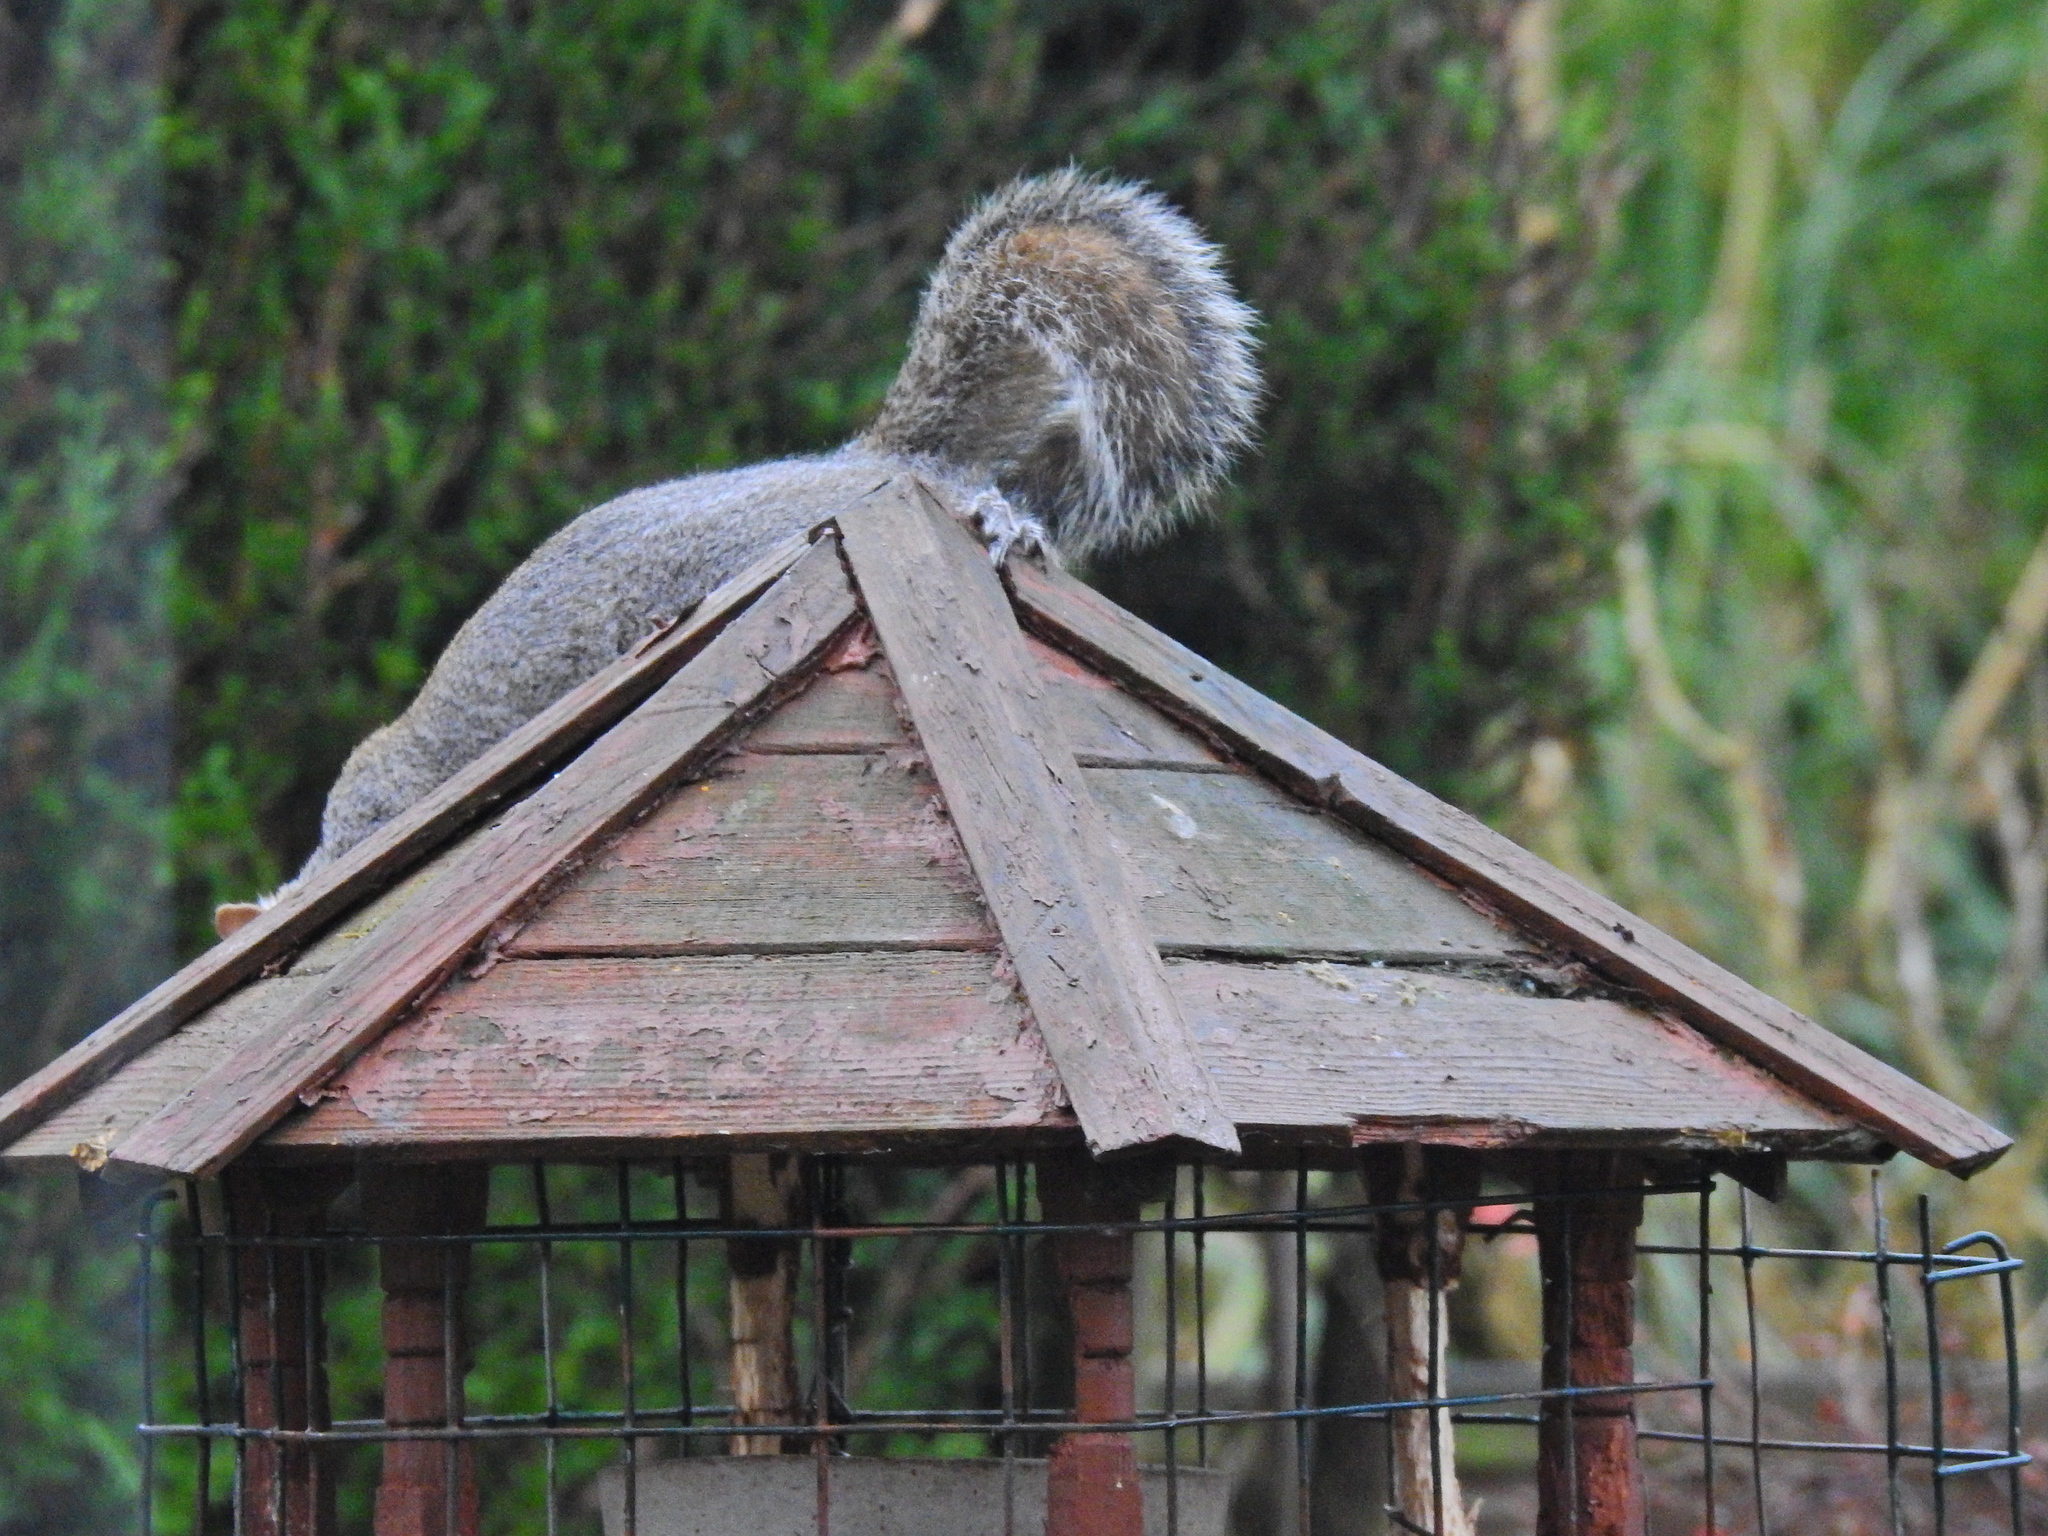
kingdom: Animalia
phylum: Chordata
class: Mammalia
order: Rodentia
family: Sciuridae
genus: Sciurus
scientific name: Sciurus carolinensis
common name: Eastern gray squirrel
